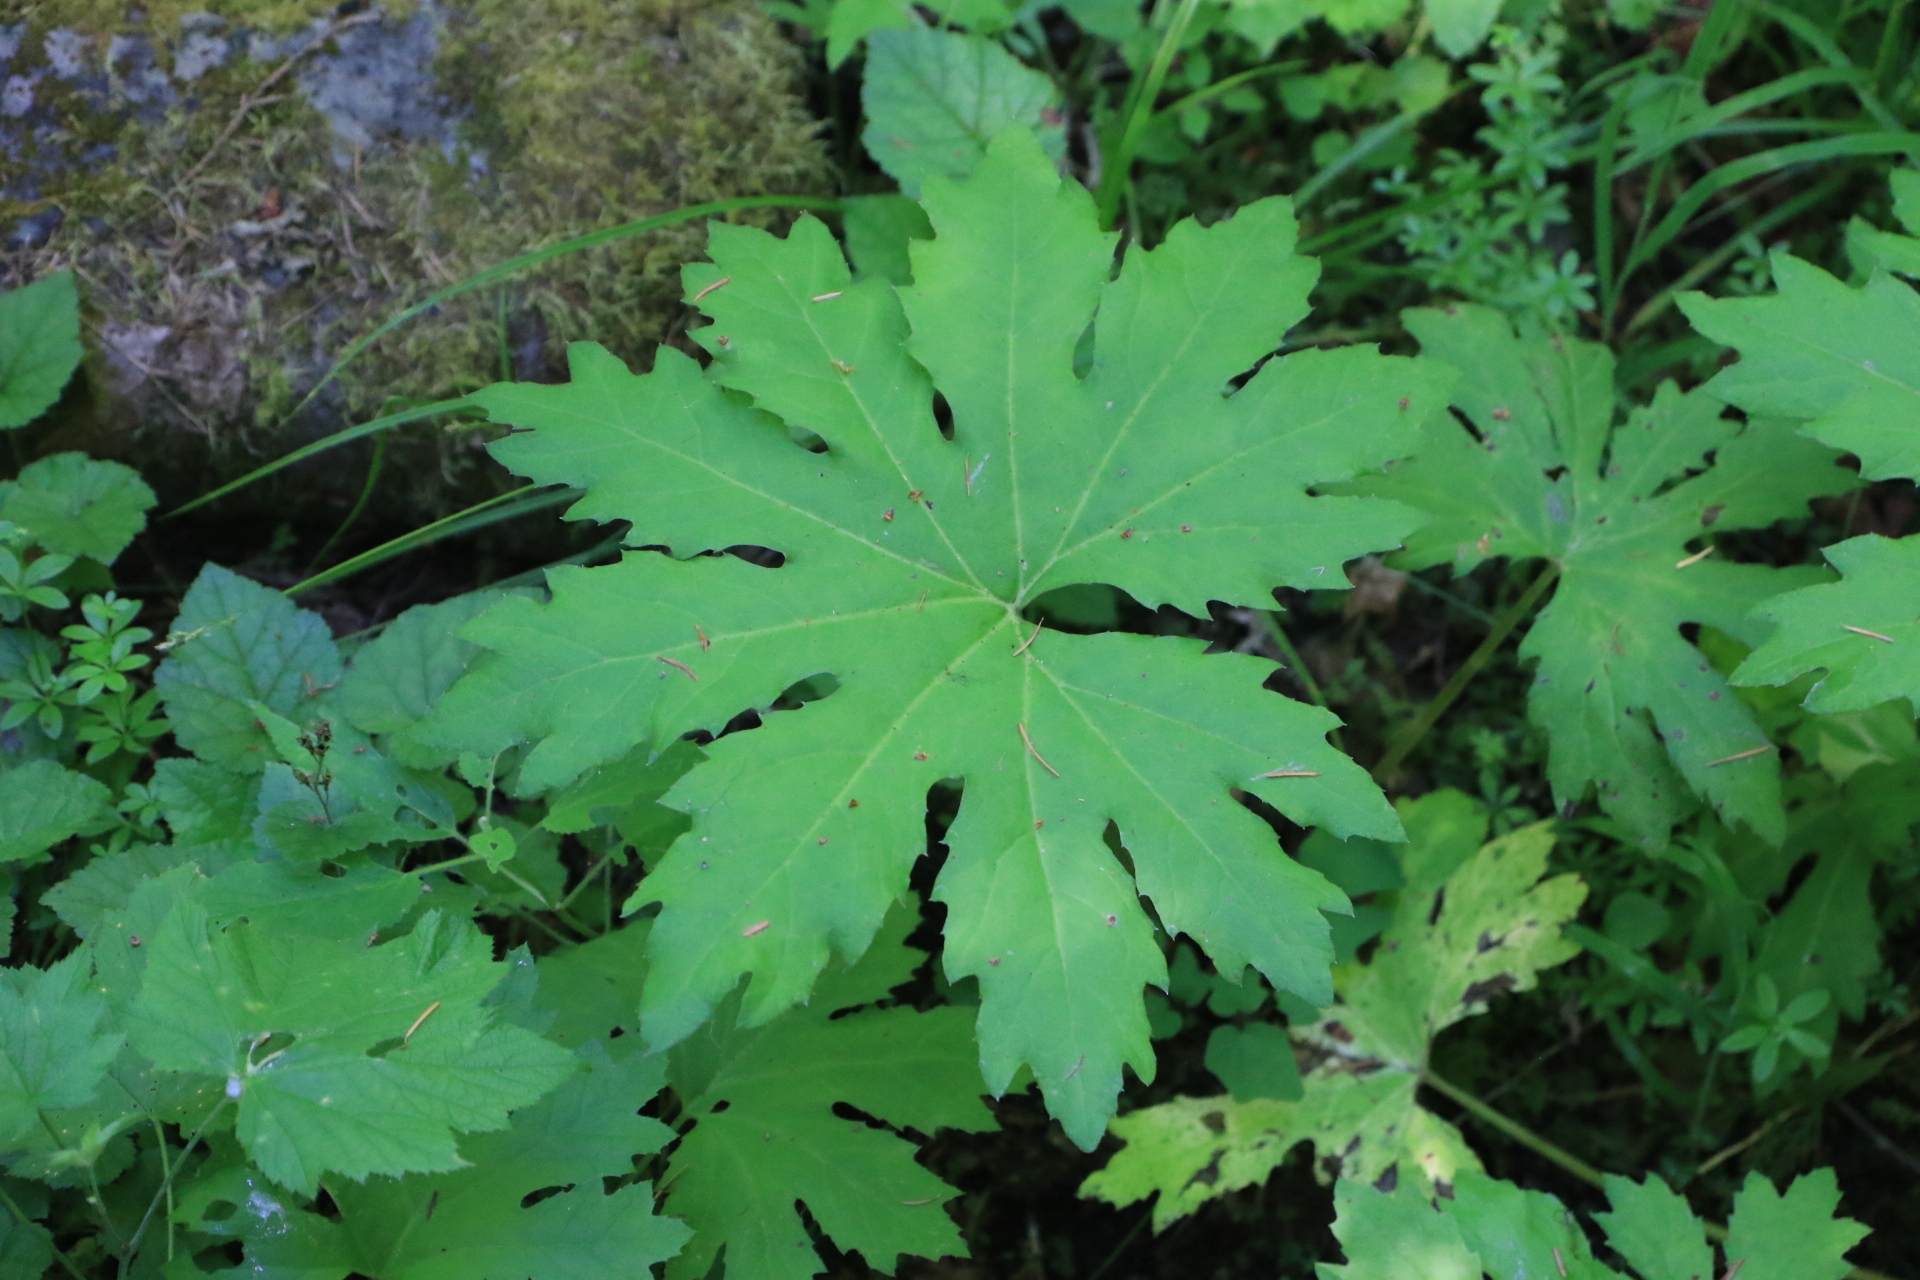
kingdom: Plantae
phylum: Tracheophyta
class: Magnoliopsida
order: Asterales
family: Asteraceae
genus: Petasites
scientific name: Petasites frigidus
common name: Arctic butterbur
